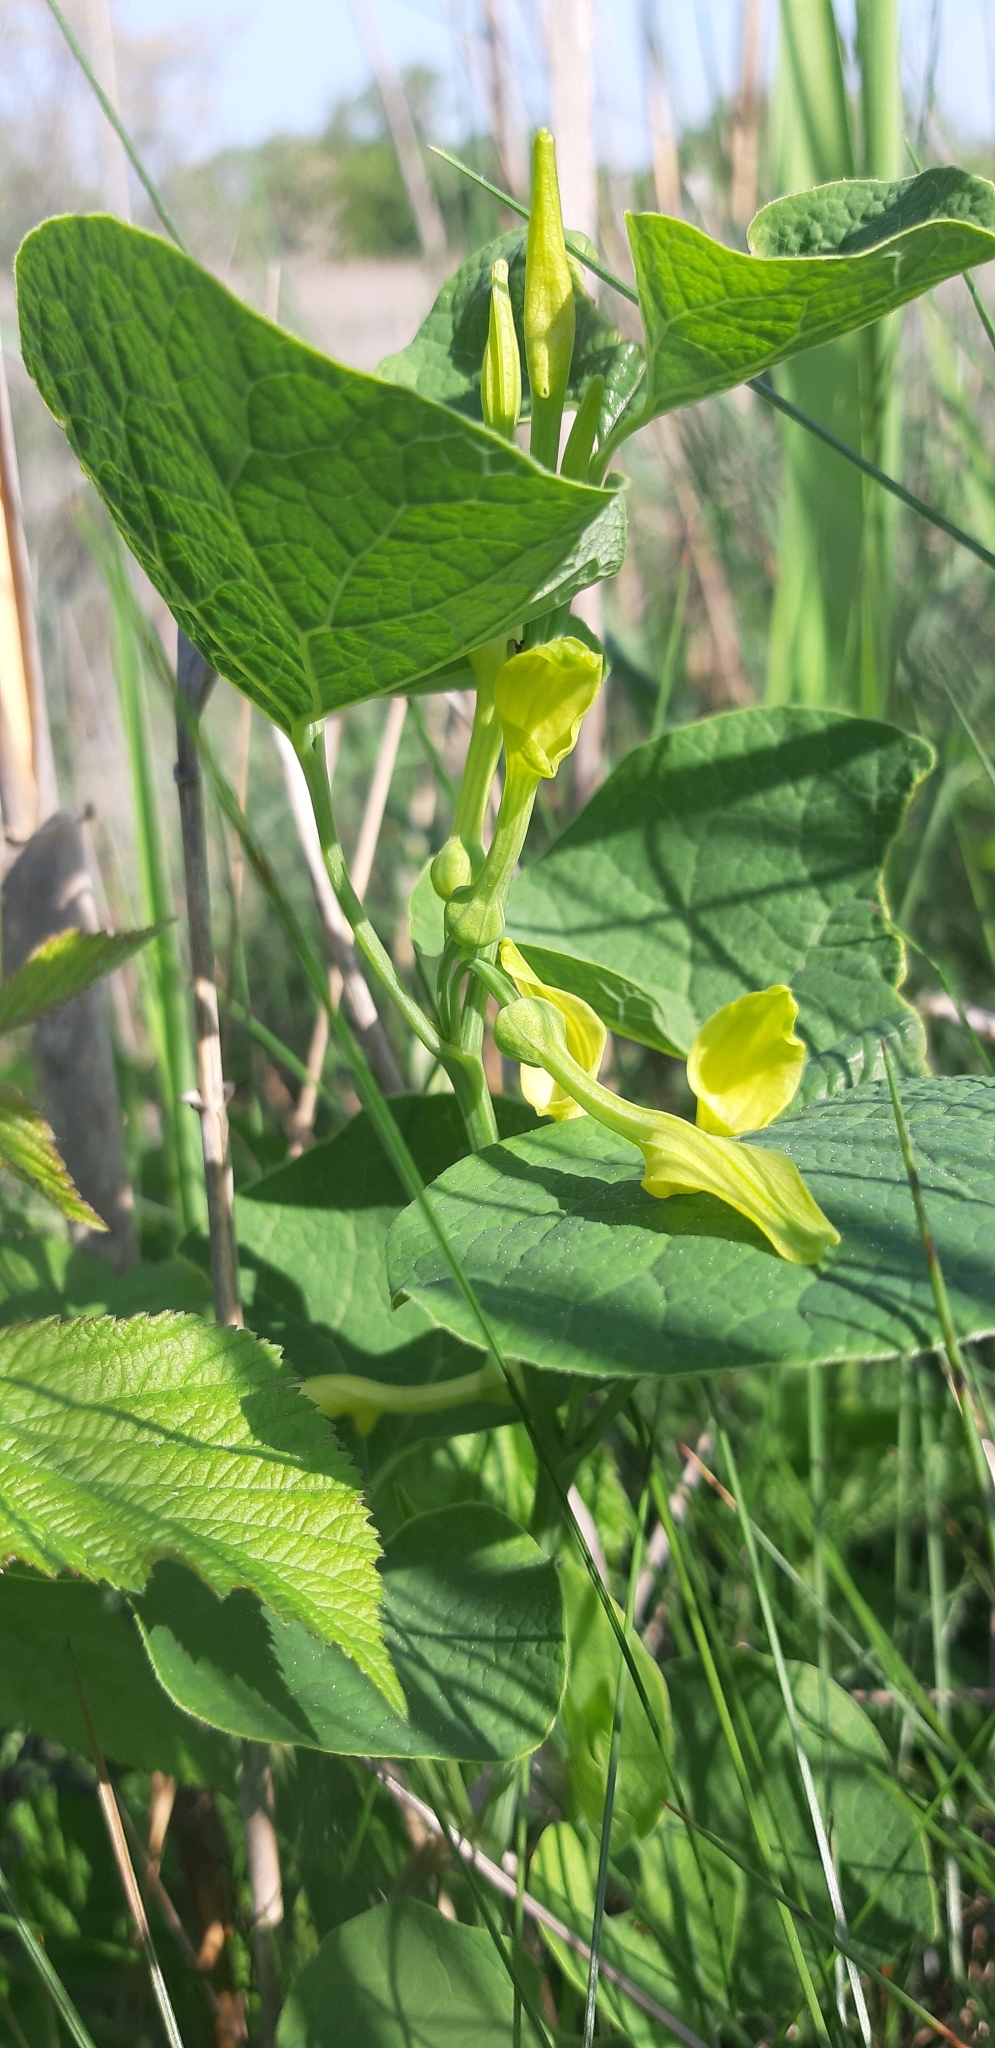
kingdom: Plantae
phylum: Tracheophyta
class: Magnoliopsida
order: Piperales
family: Aristolochiaceae
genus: Aristolochia
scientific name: Aristolochia clematitis
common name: Birthwort
